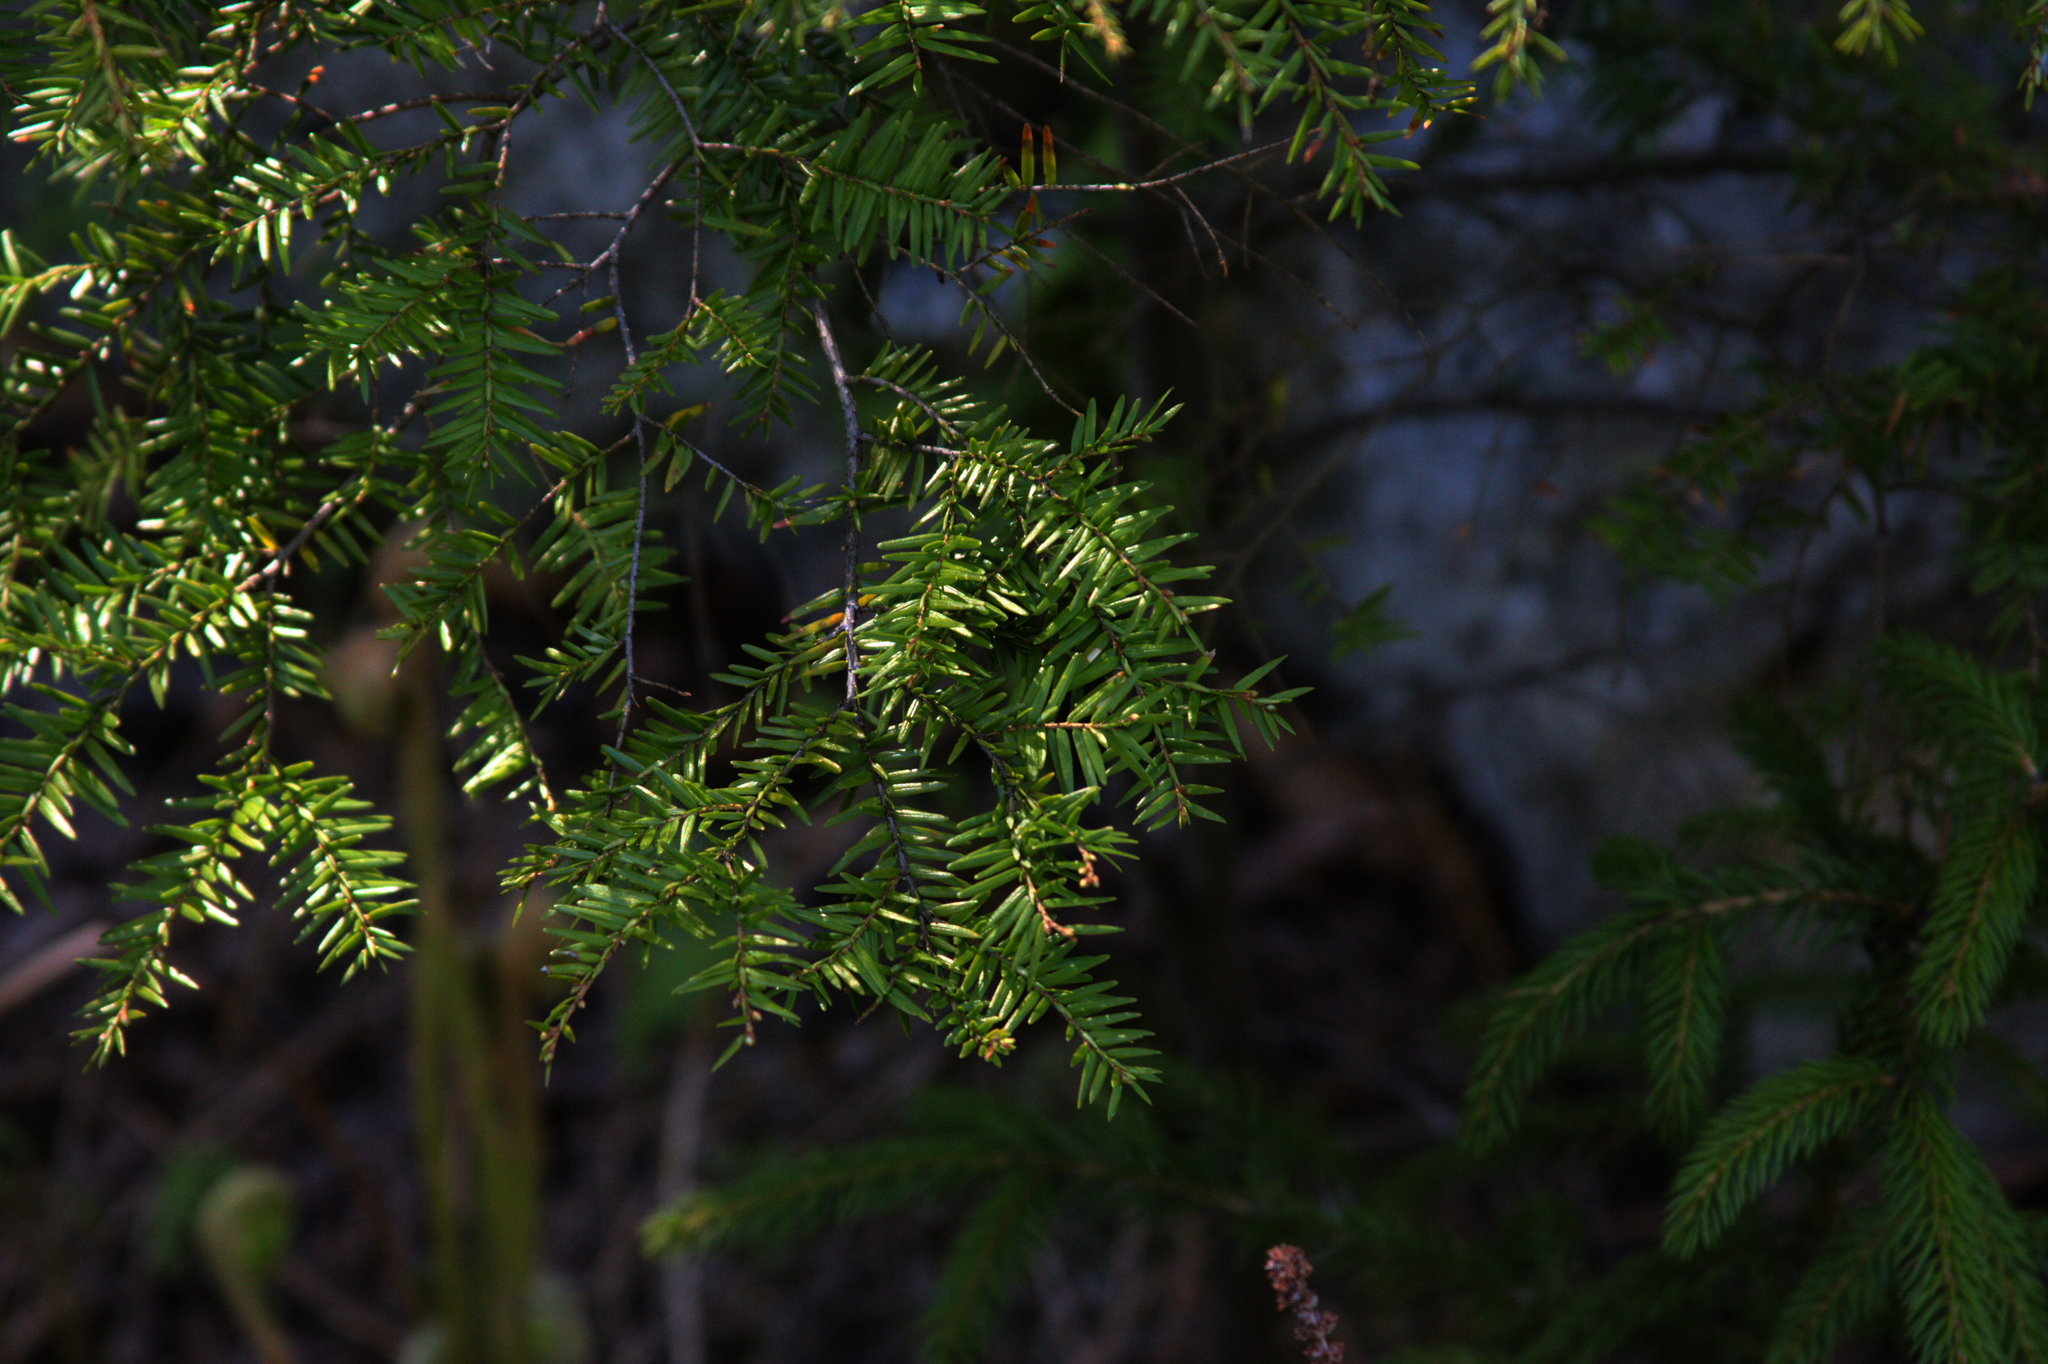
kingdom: Plantae
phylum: Tracheophyta
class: Pinopsida
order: Pinales
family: Pinaceae
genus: Tsuga
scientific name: Tsuga canadensis
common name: Eastern hemlock
